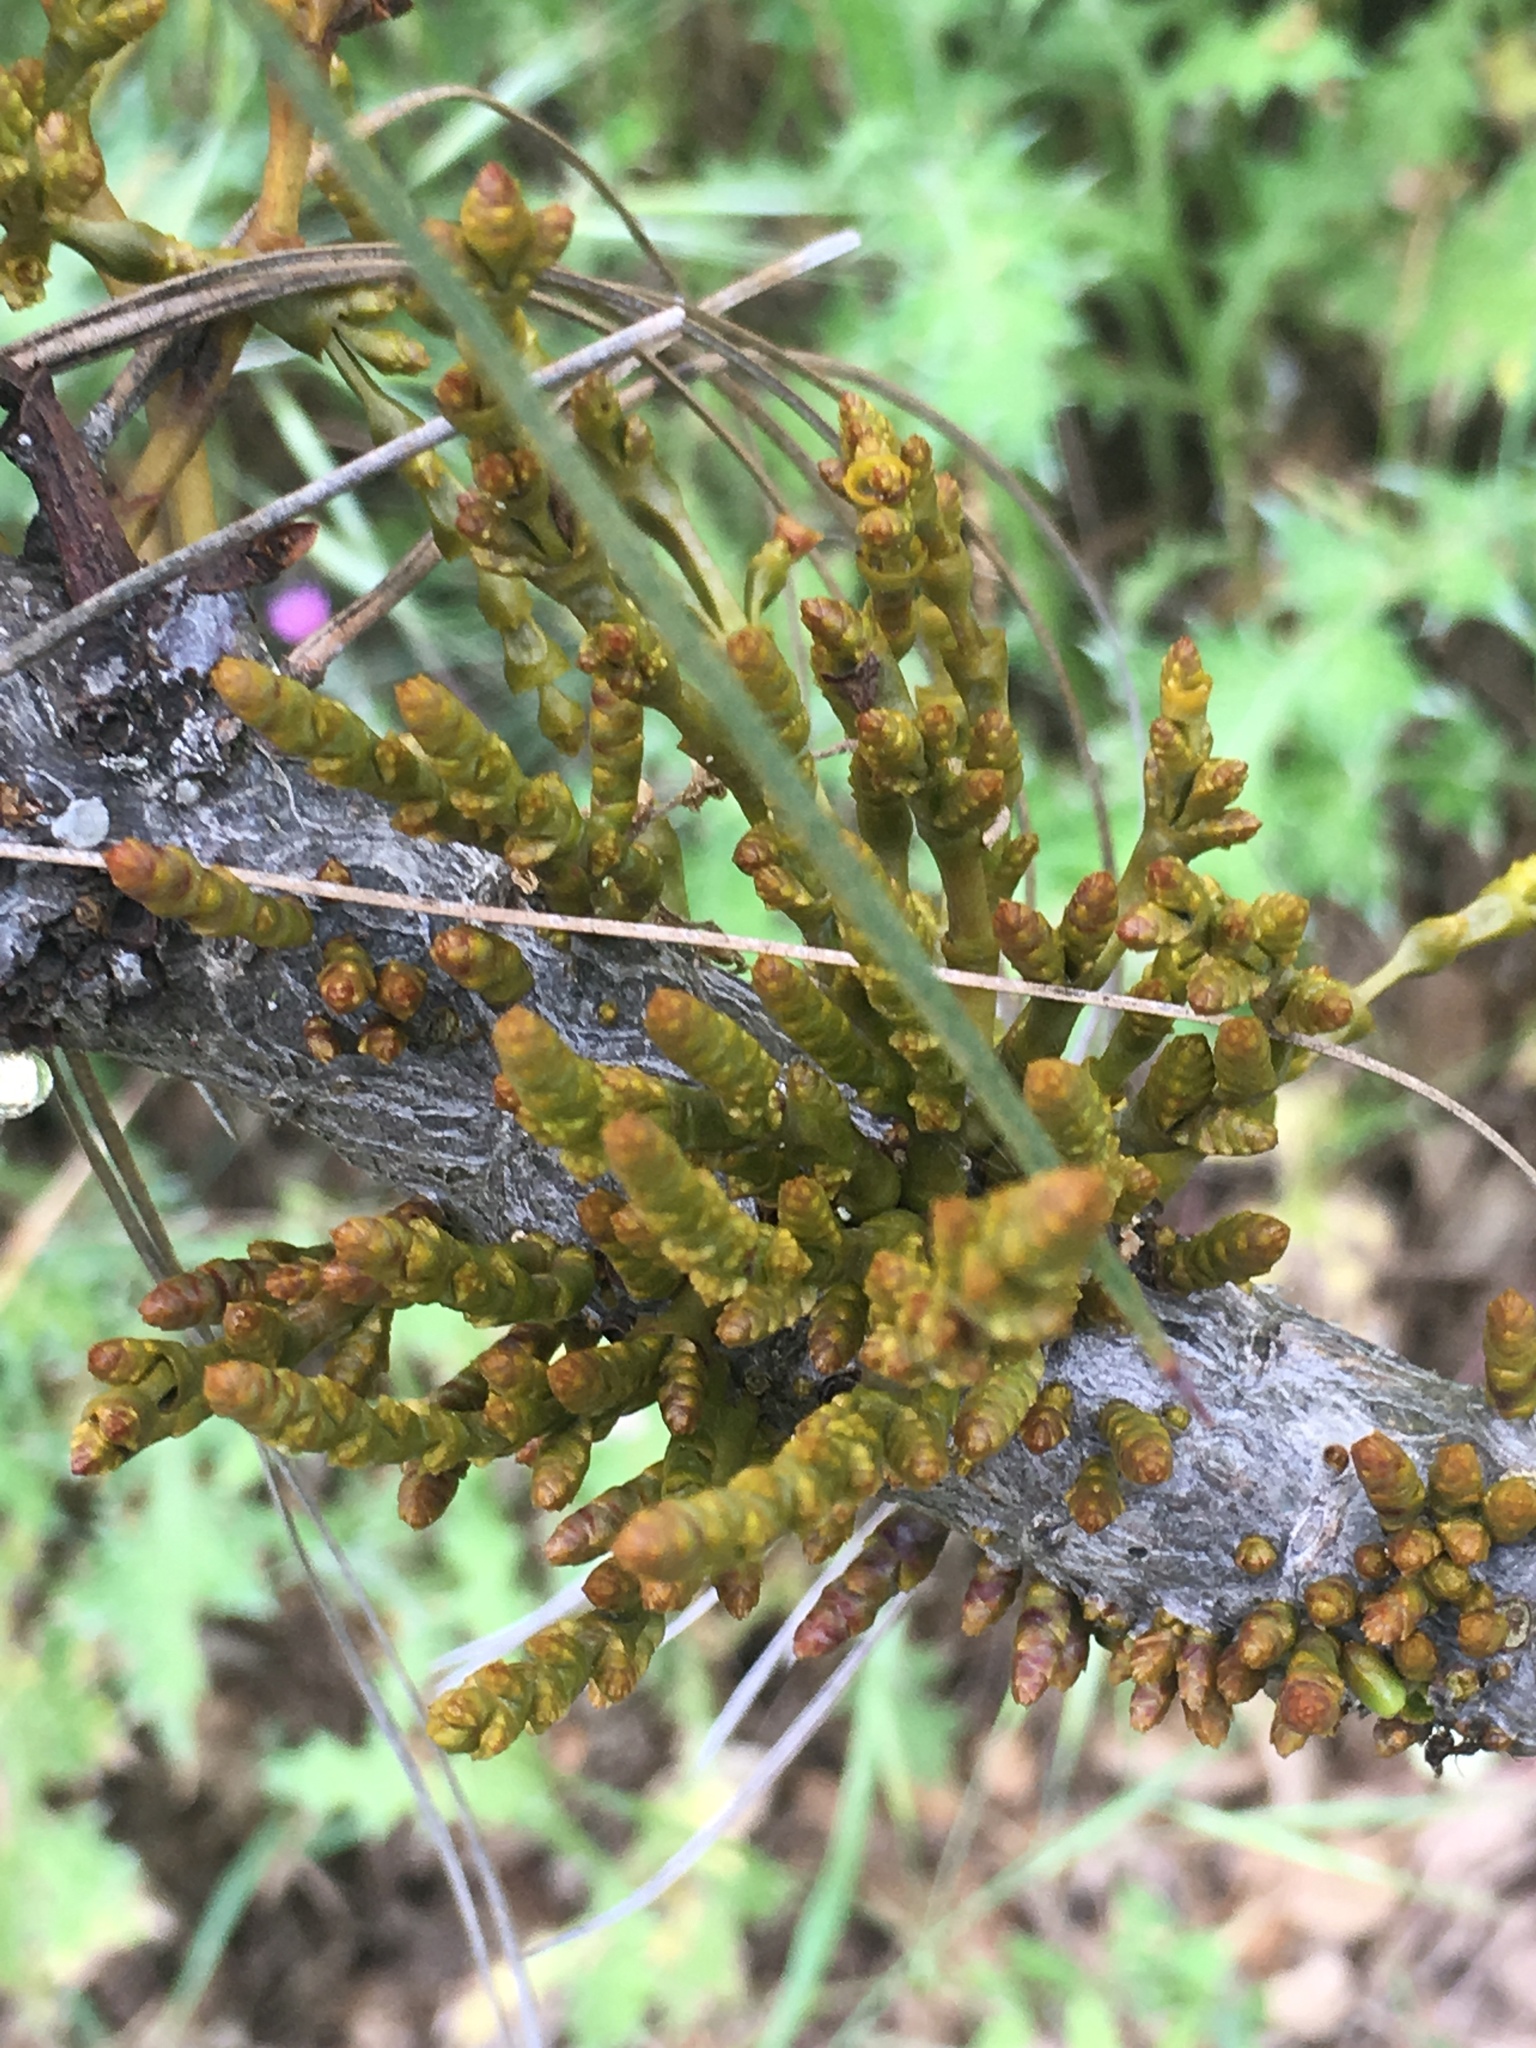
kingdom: Plantae
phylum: Tracheophyta
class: Magnoliopsida
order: Santalales
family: Viscaceae
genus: Arceuthobium
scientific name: Arceuthobium campylopodum
